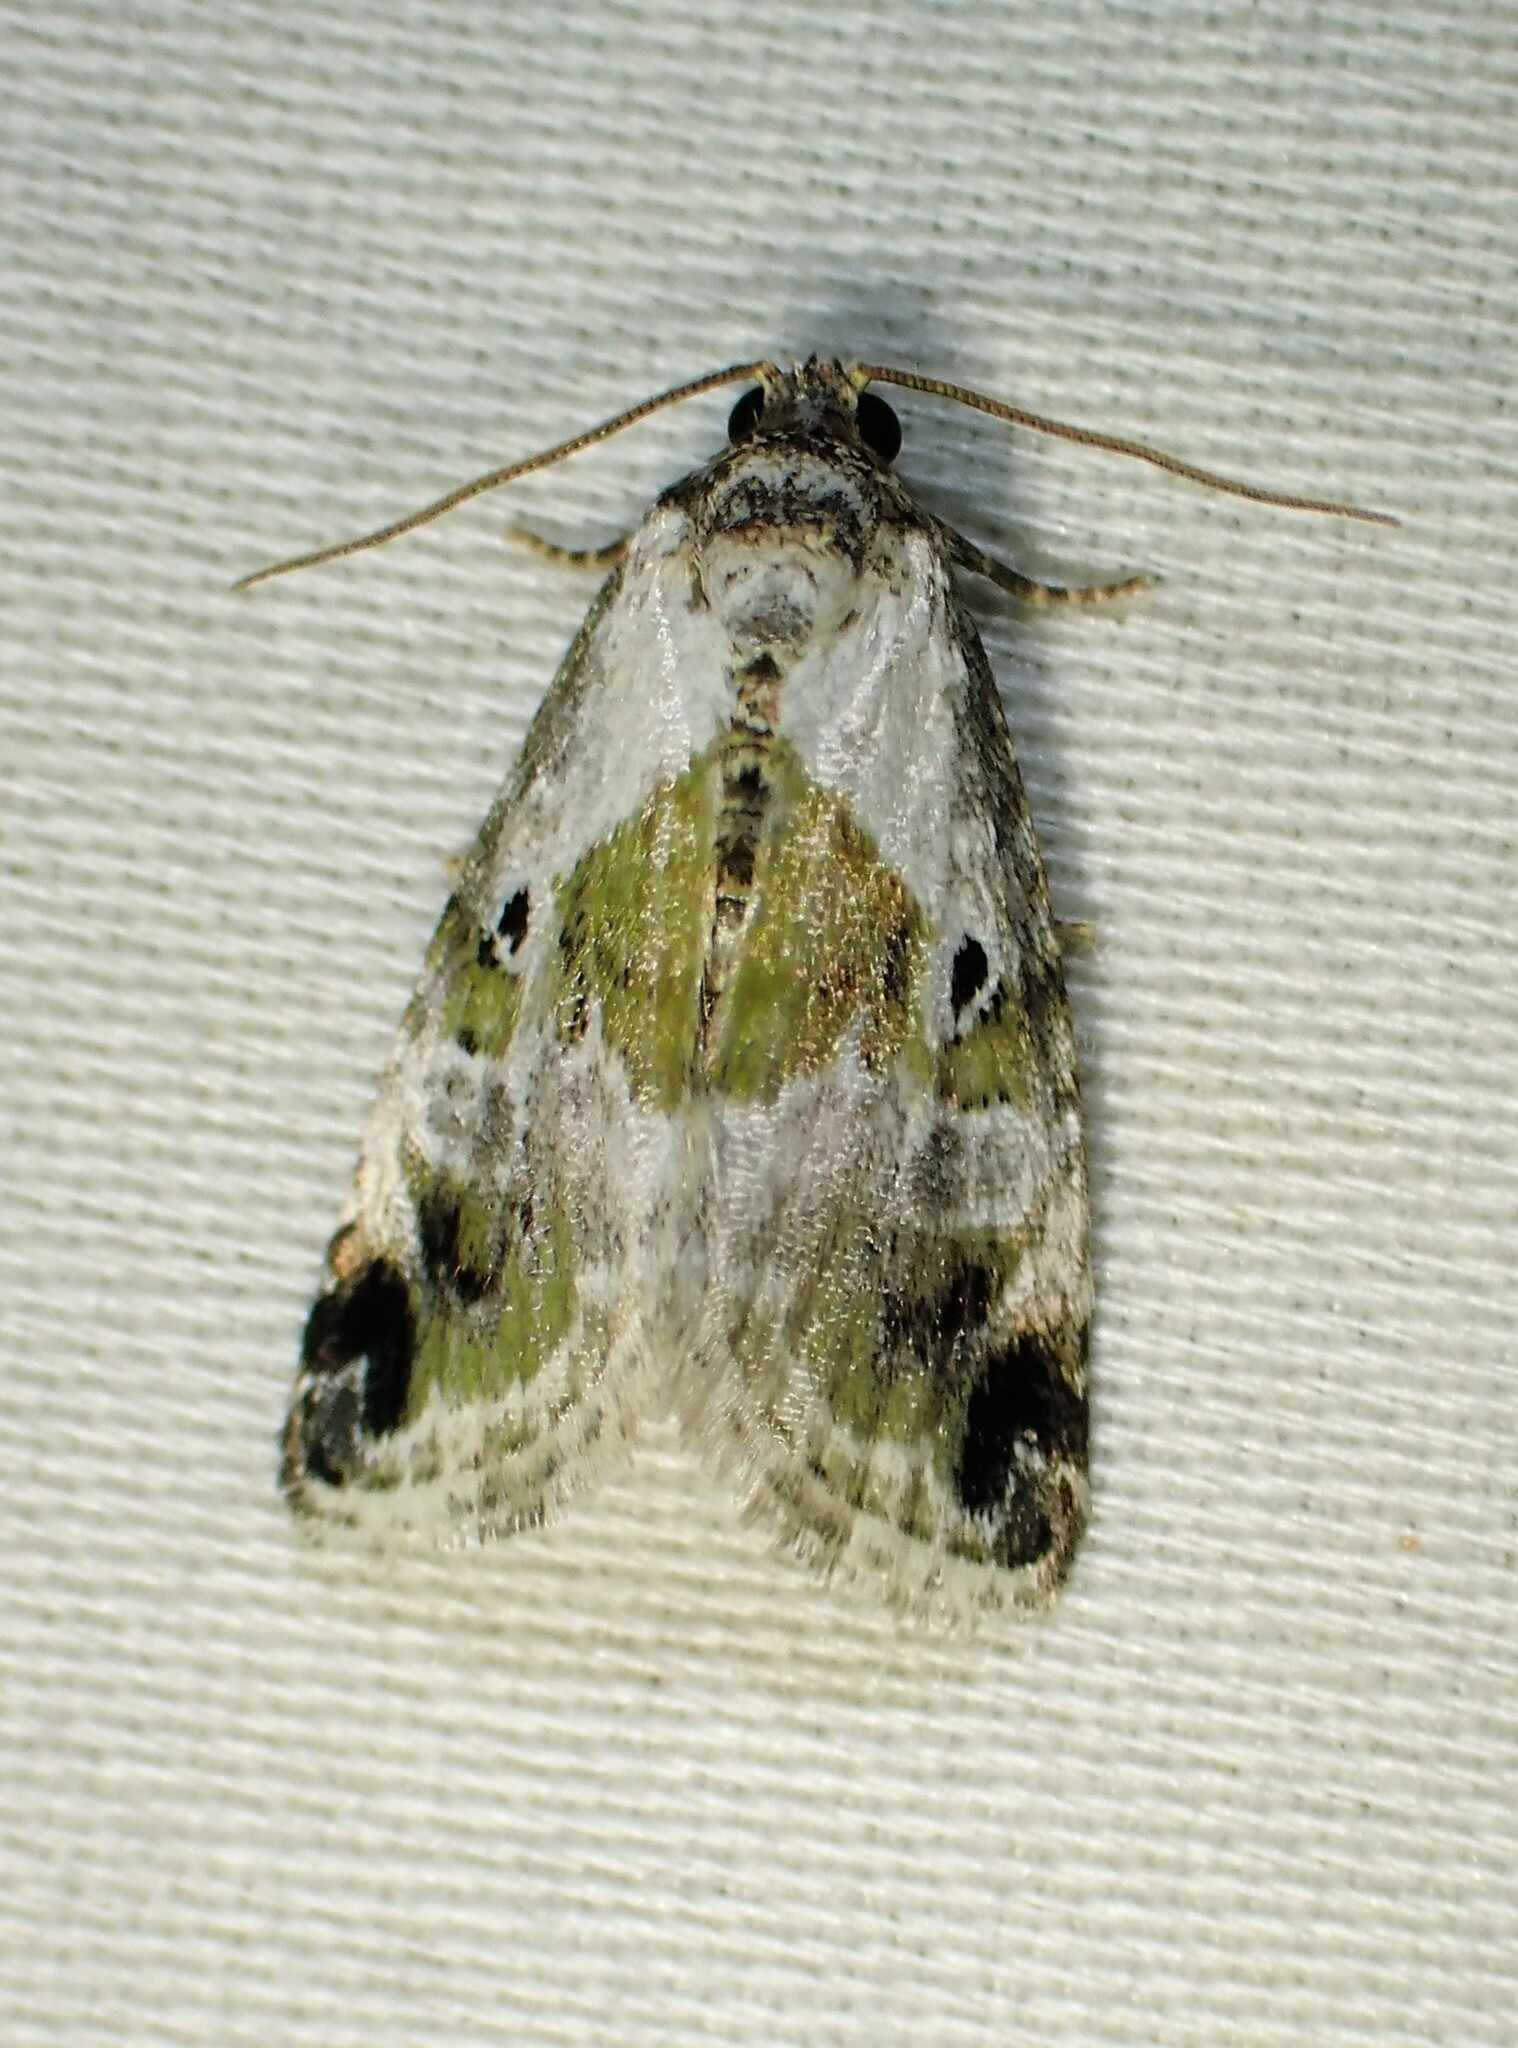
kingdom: Animalia
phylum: Arthropoda
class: Insecta
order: Lepidoptera
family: Noctuidae
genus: Maliattha
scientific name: Maliattha synochitis
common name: Black-dotted glyph
